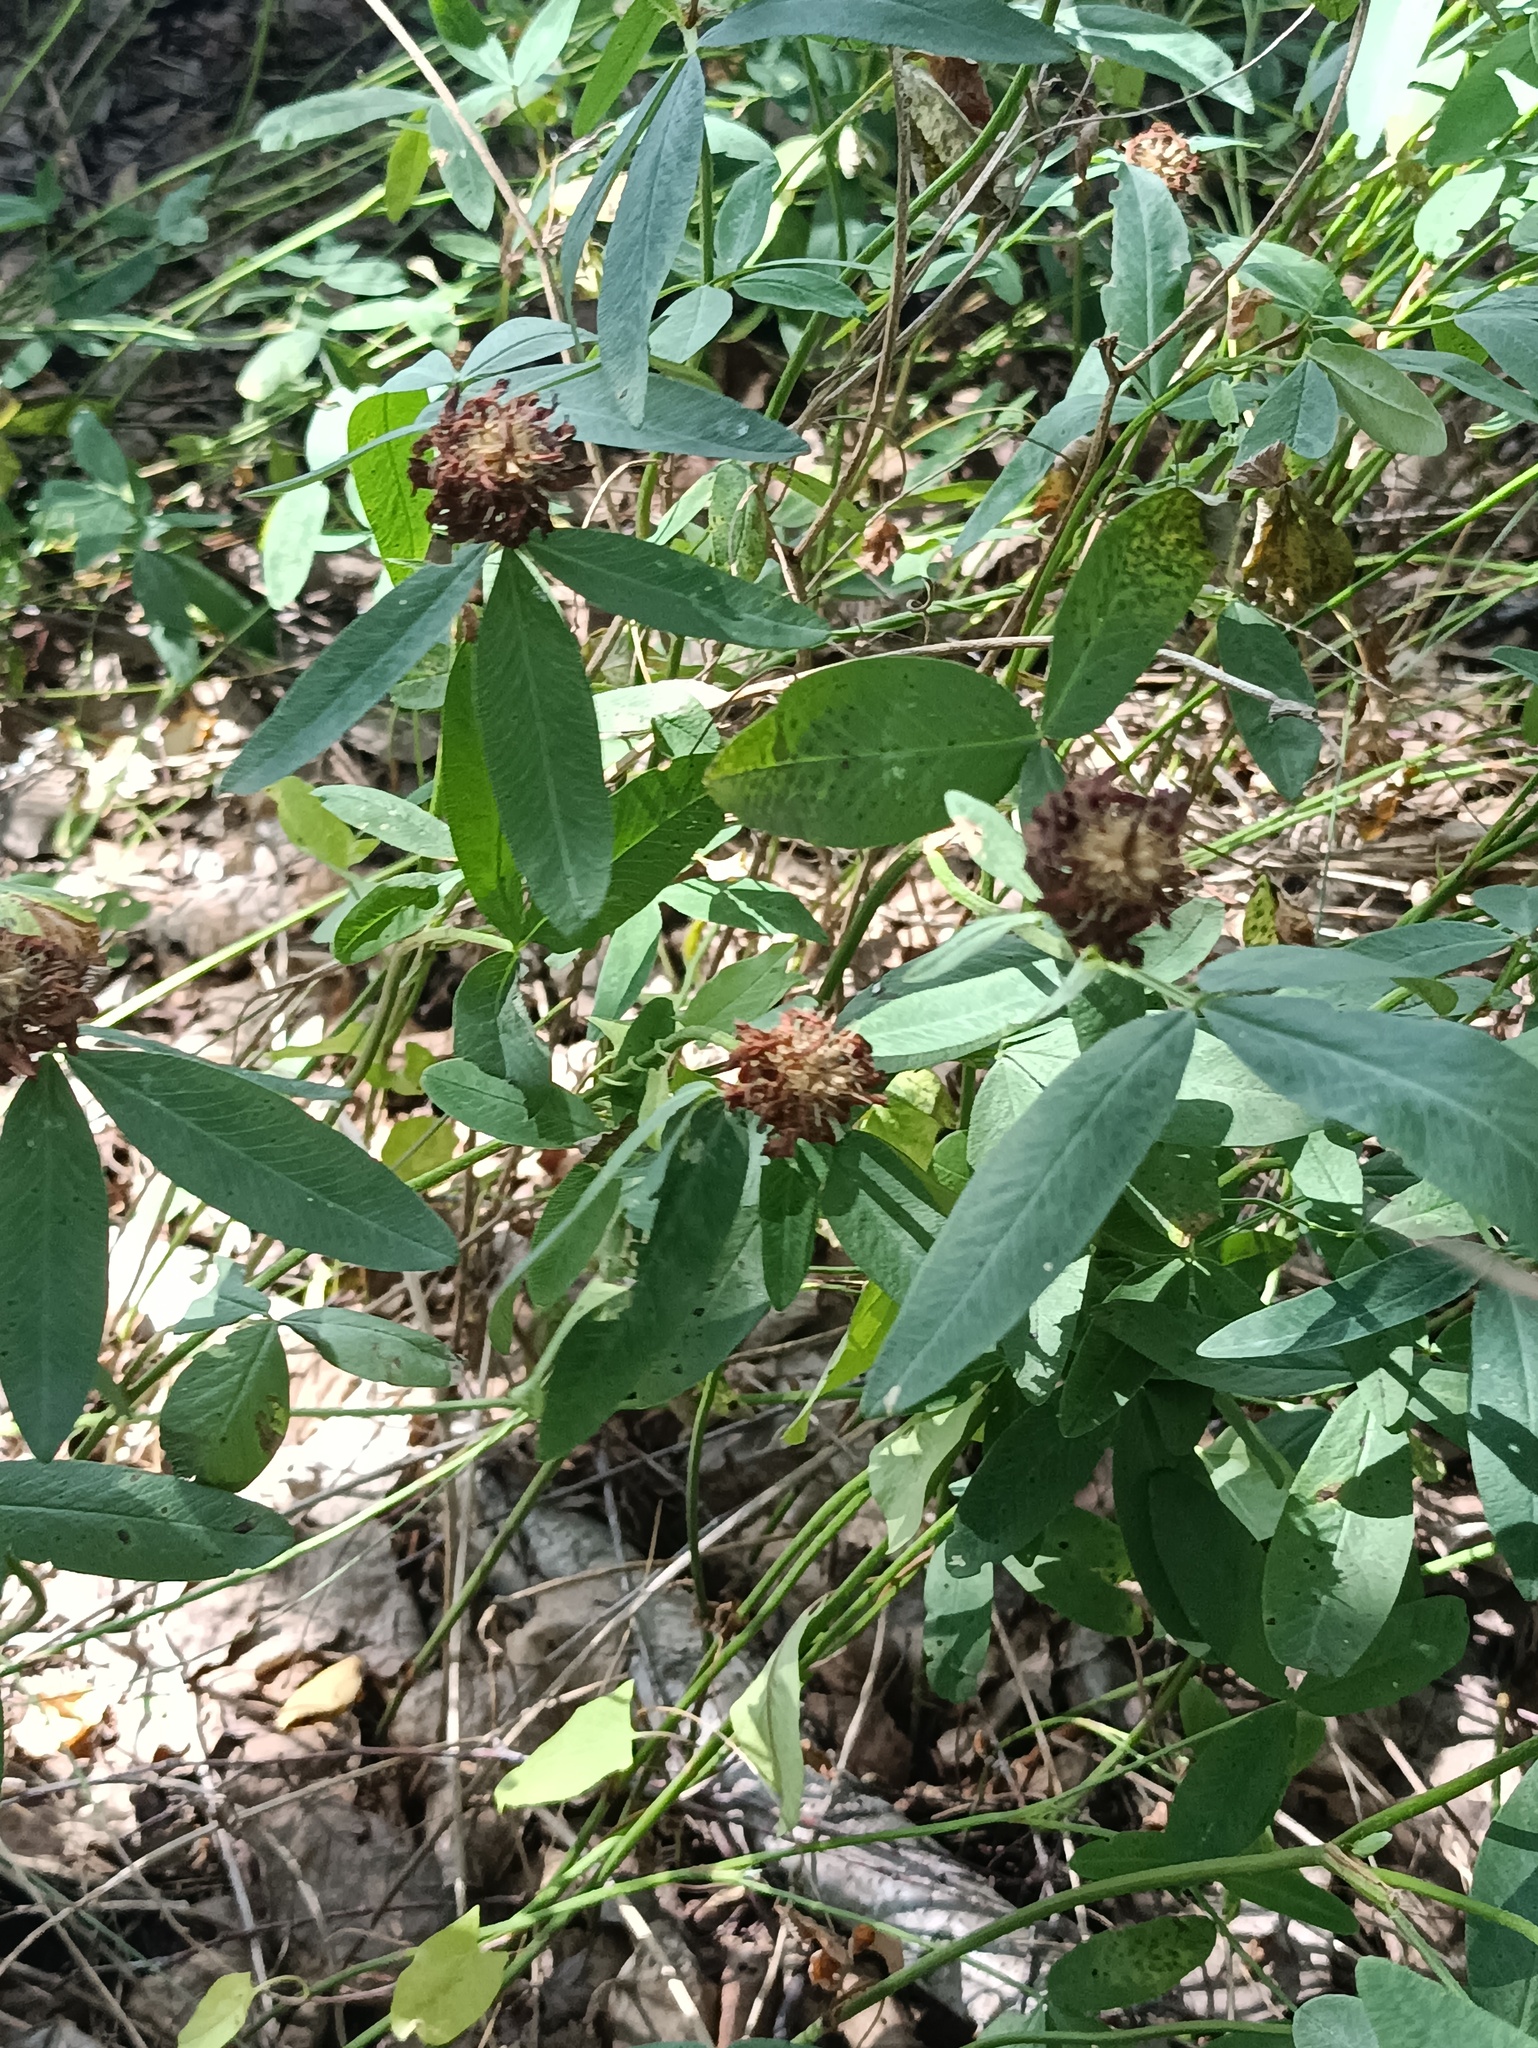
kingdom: Plantae
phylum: Tracheophyta
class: Magnoliopsida
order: Fabales
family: Fabaceae
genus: Trifolium
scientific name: Trifolium medium
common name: Zigzag clover
